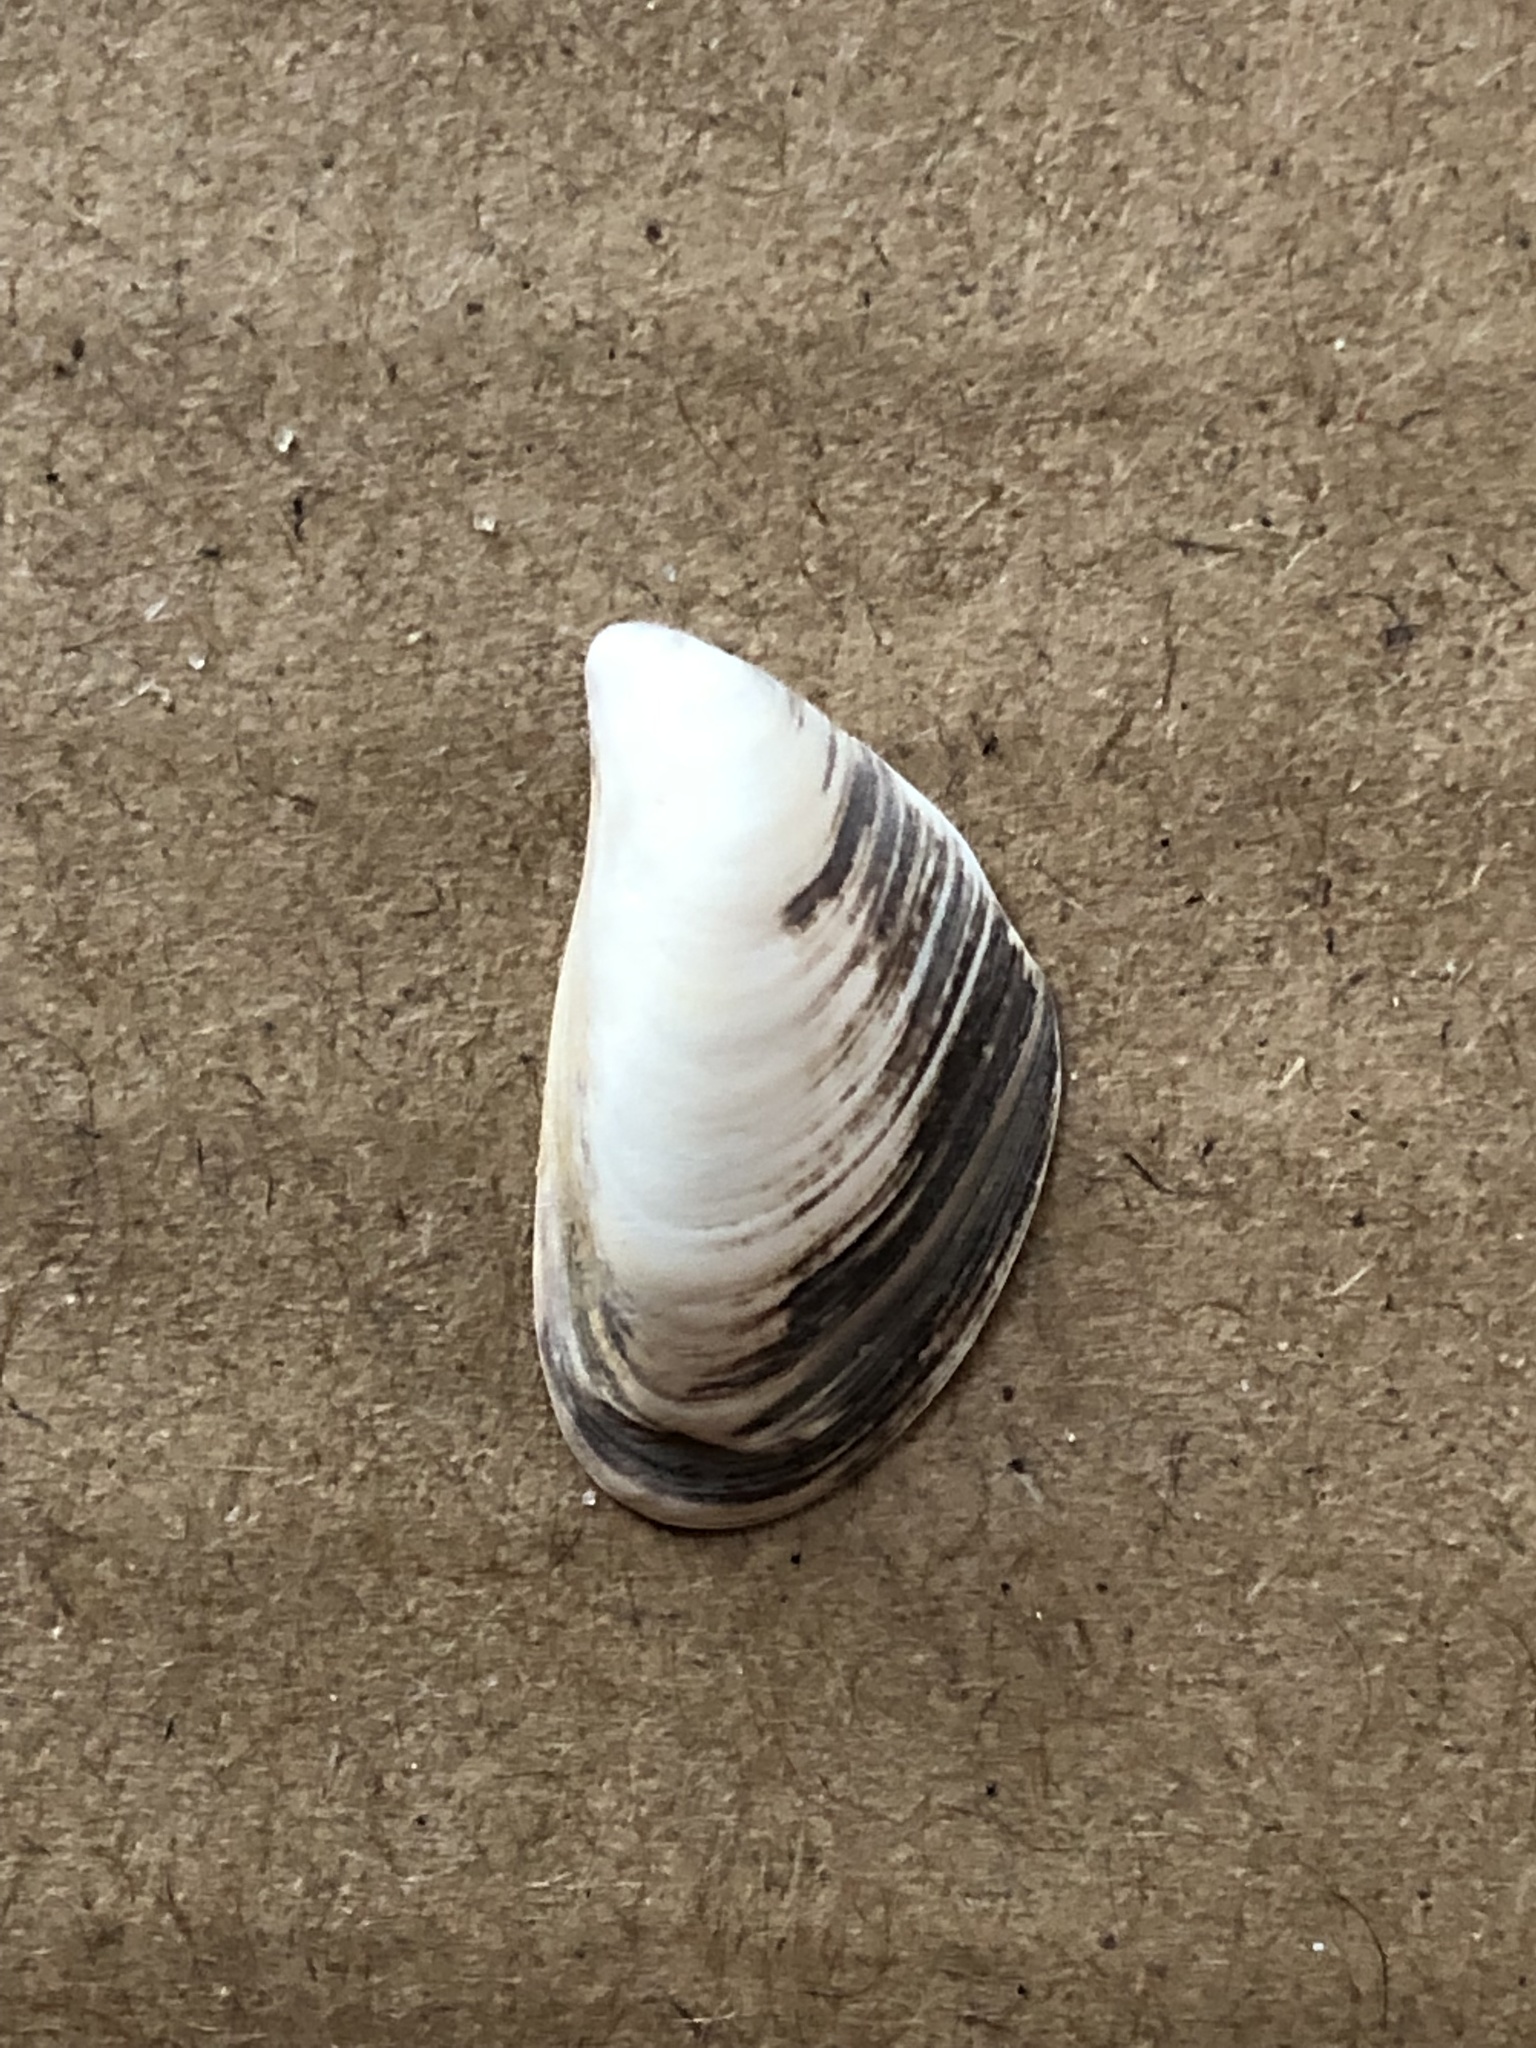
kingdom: Animalia
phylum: Mollusca
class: Bivalvia
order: Myida
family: Dreissenidae
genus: Dreissena
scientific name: Dreissena bugensis
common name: Quagga mussel
